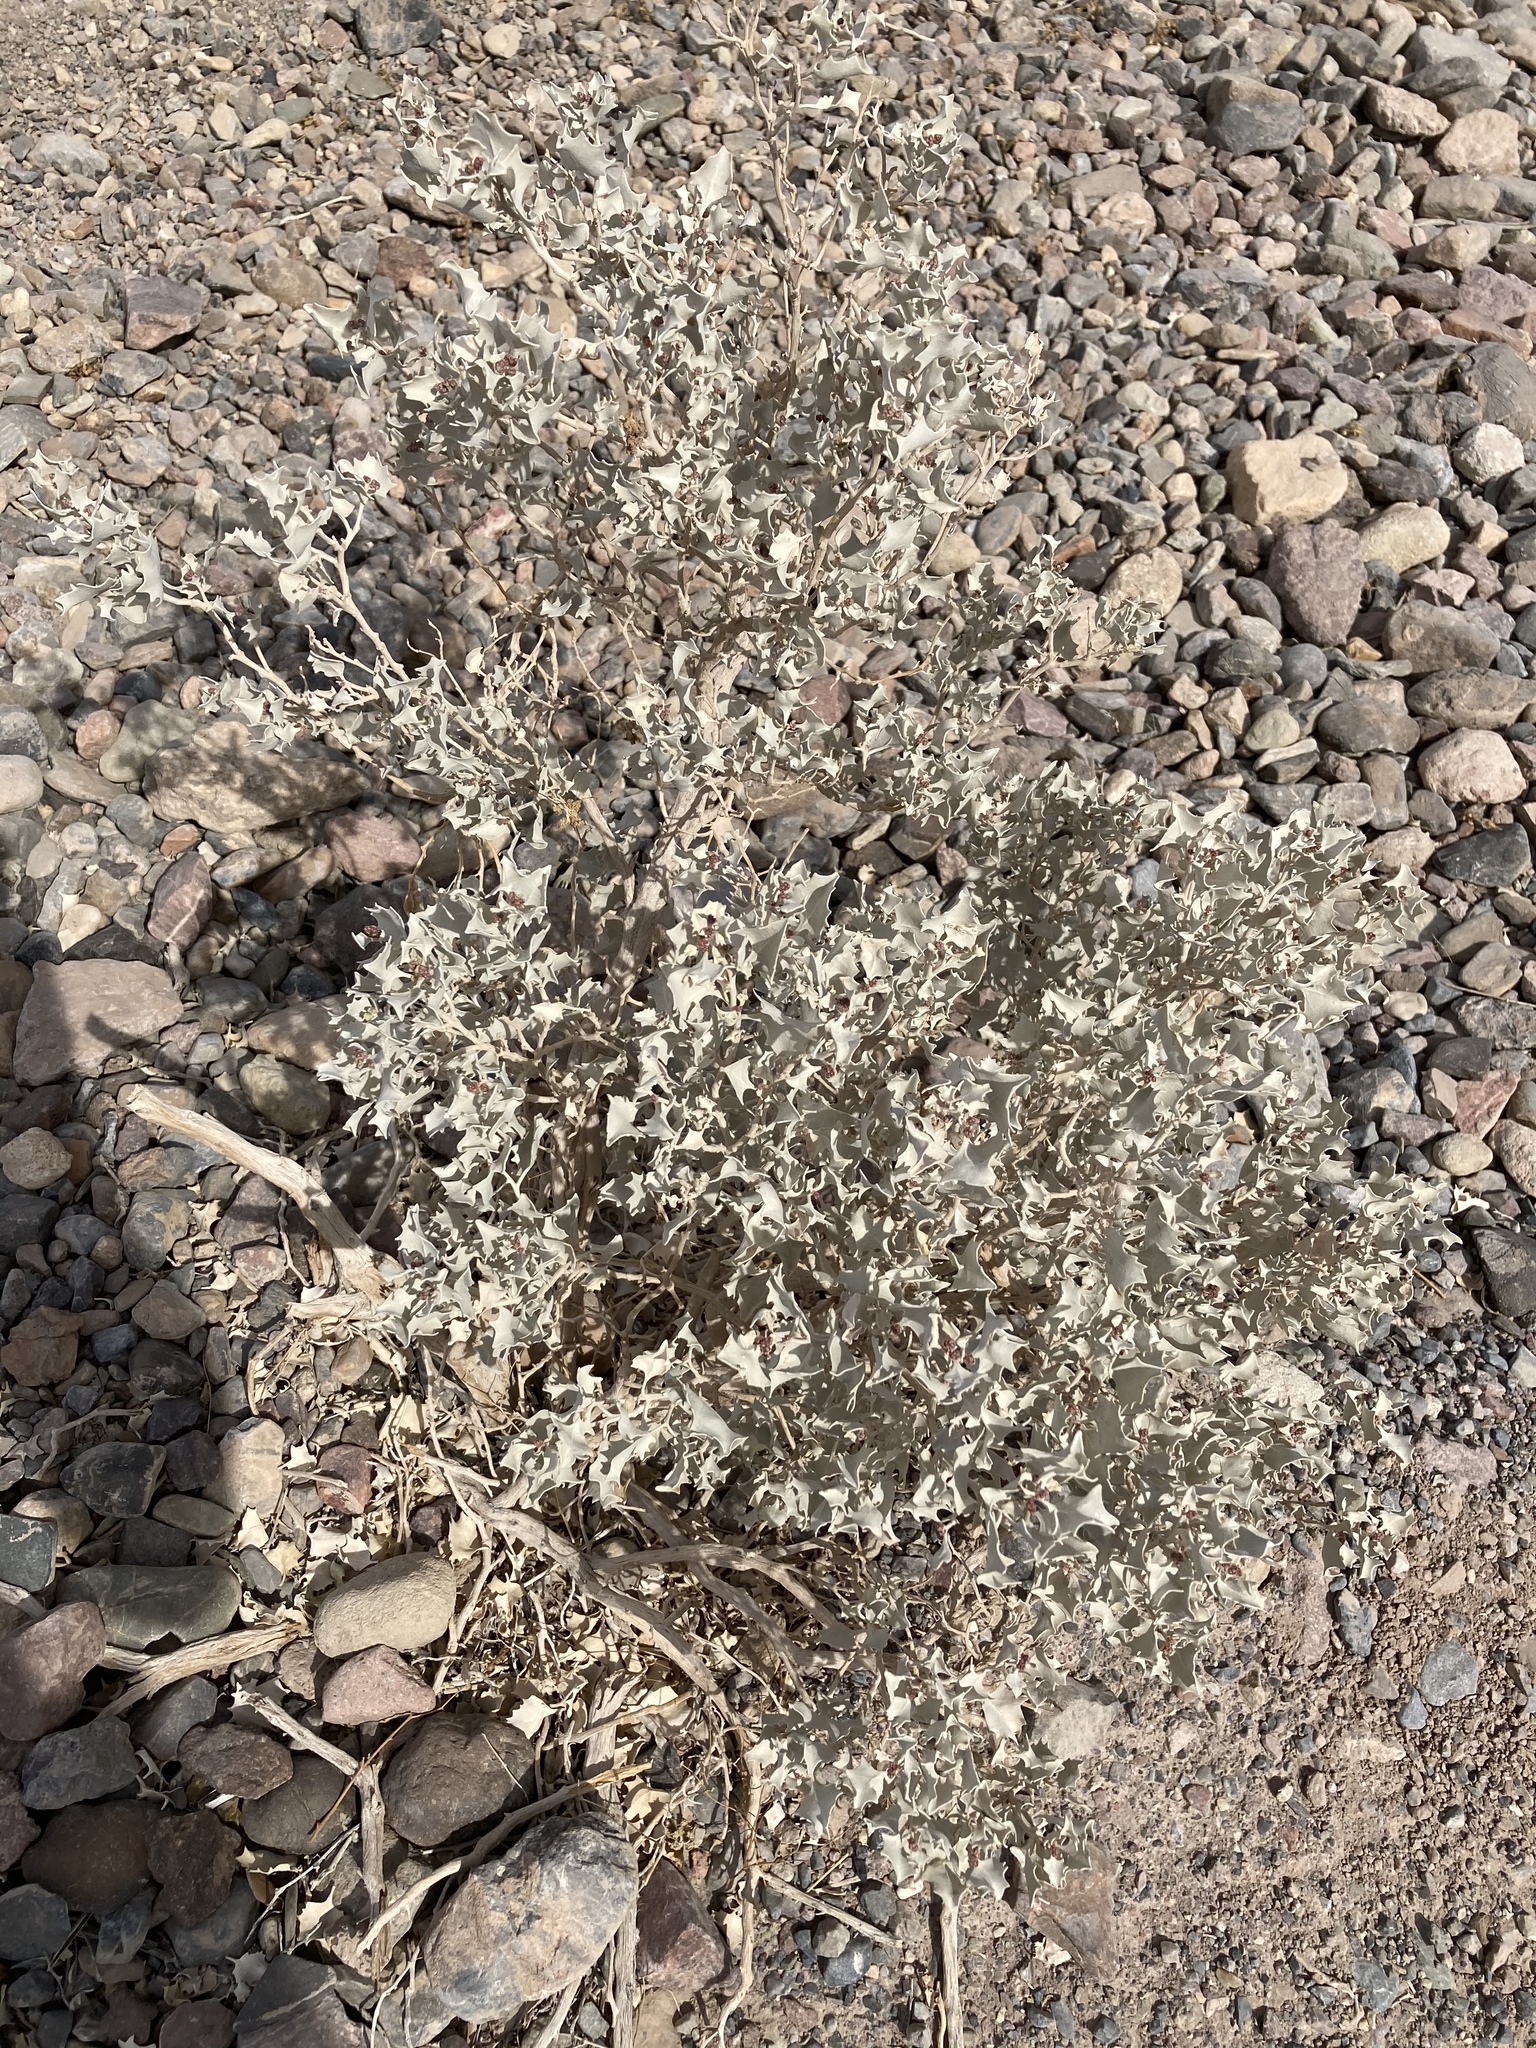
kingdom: Plantae
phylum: Tracheophyta
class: Magnoliopsida
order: Caryophyllales
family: Amaranthaceae
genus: Atriplex
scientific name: Atriplex hymenelytra
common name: Desert-holly
